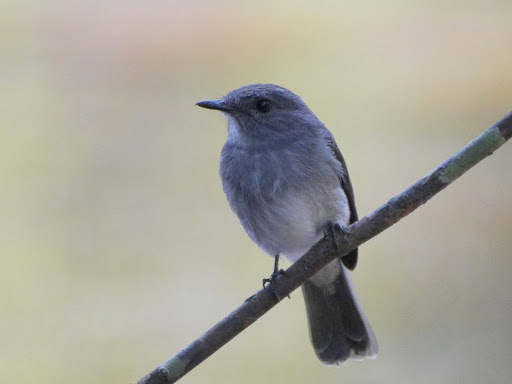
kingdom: Animalia
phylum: Chordata
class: Aves
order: Passeriformes
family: Muscicapidae
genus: Muscicapa
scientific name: Muscicapa cassini
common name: Cassin's flycatcher
